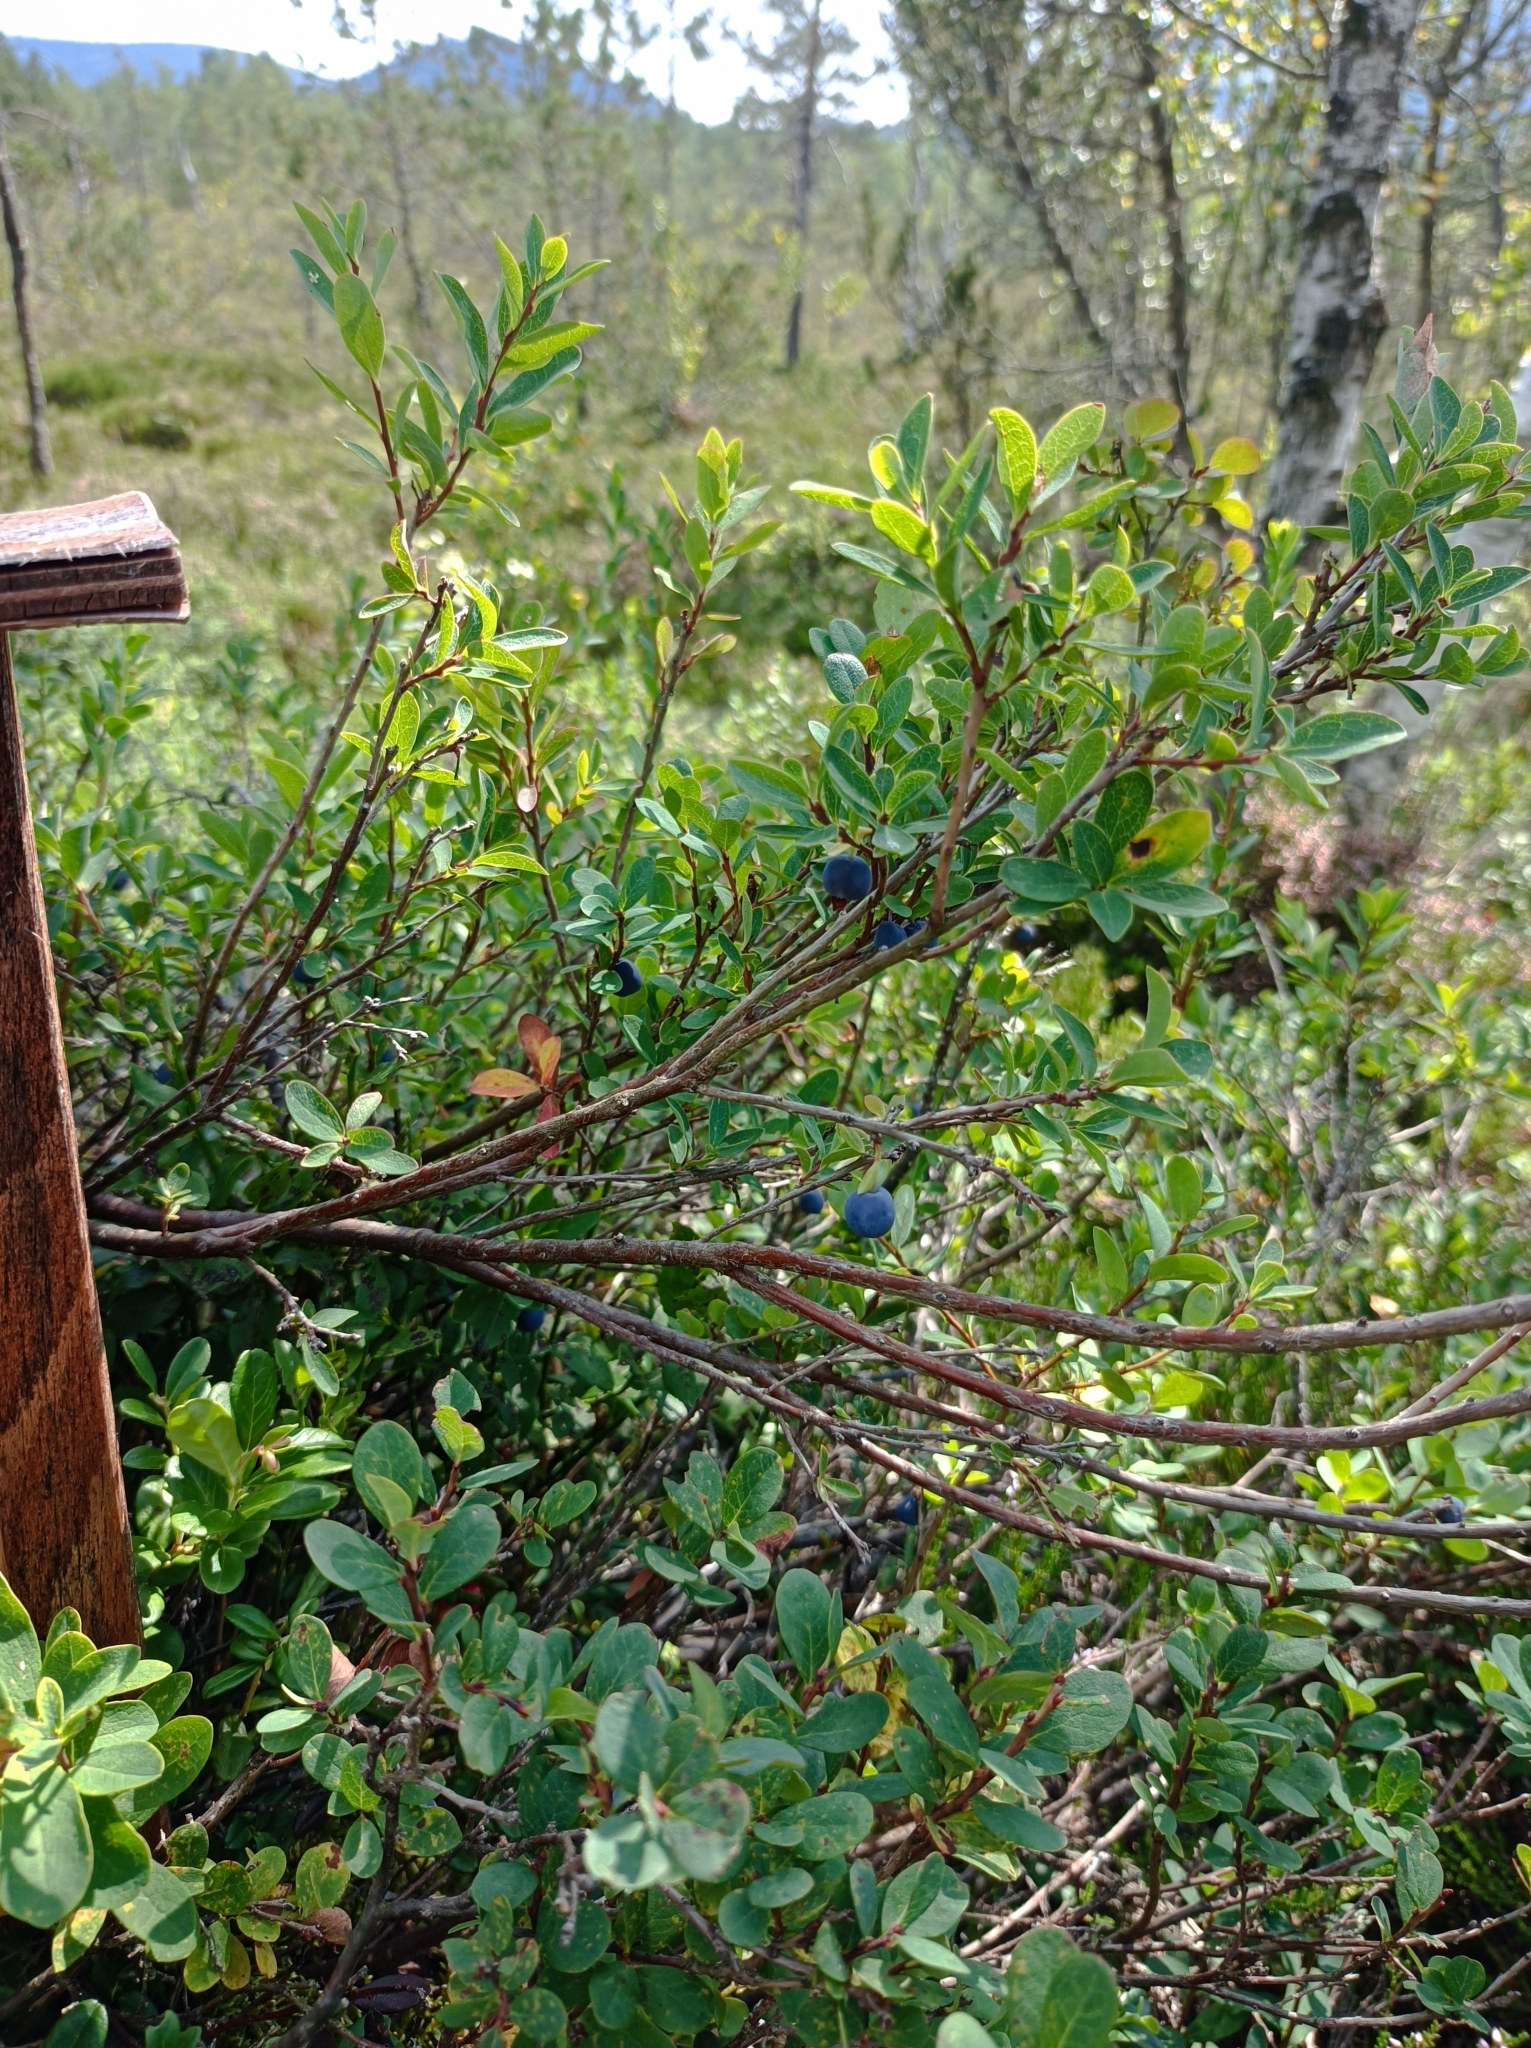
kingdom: Plantae
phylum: Tracheophyta
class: Magnoliopsida
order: Ericales
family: Ericaceae
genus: Vaccinium
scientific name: Vaccinium uliginosum
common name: Bog bilberry
